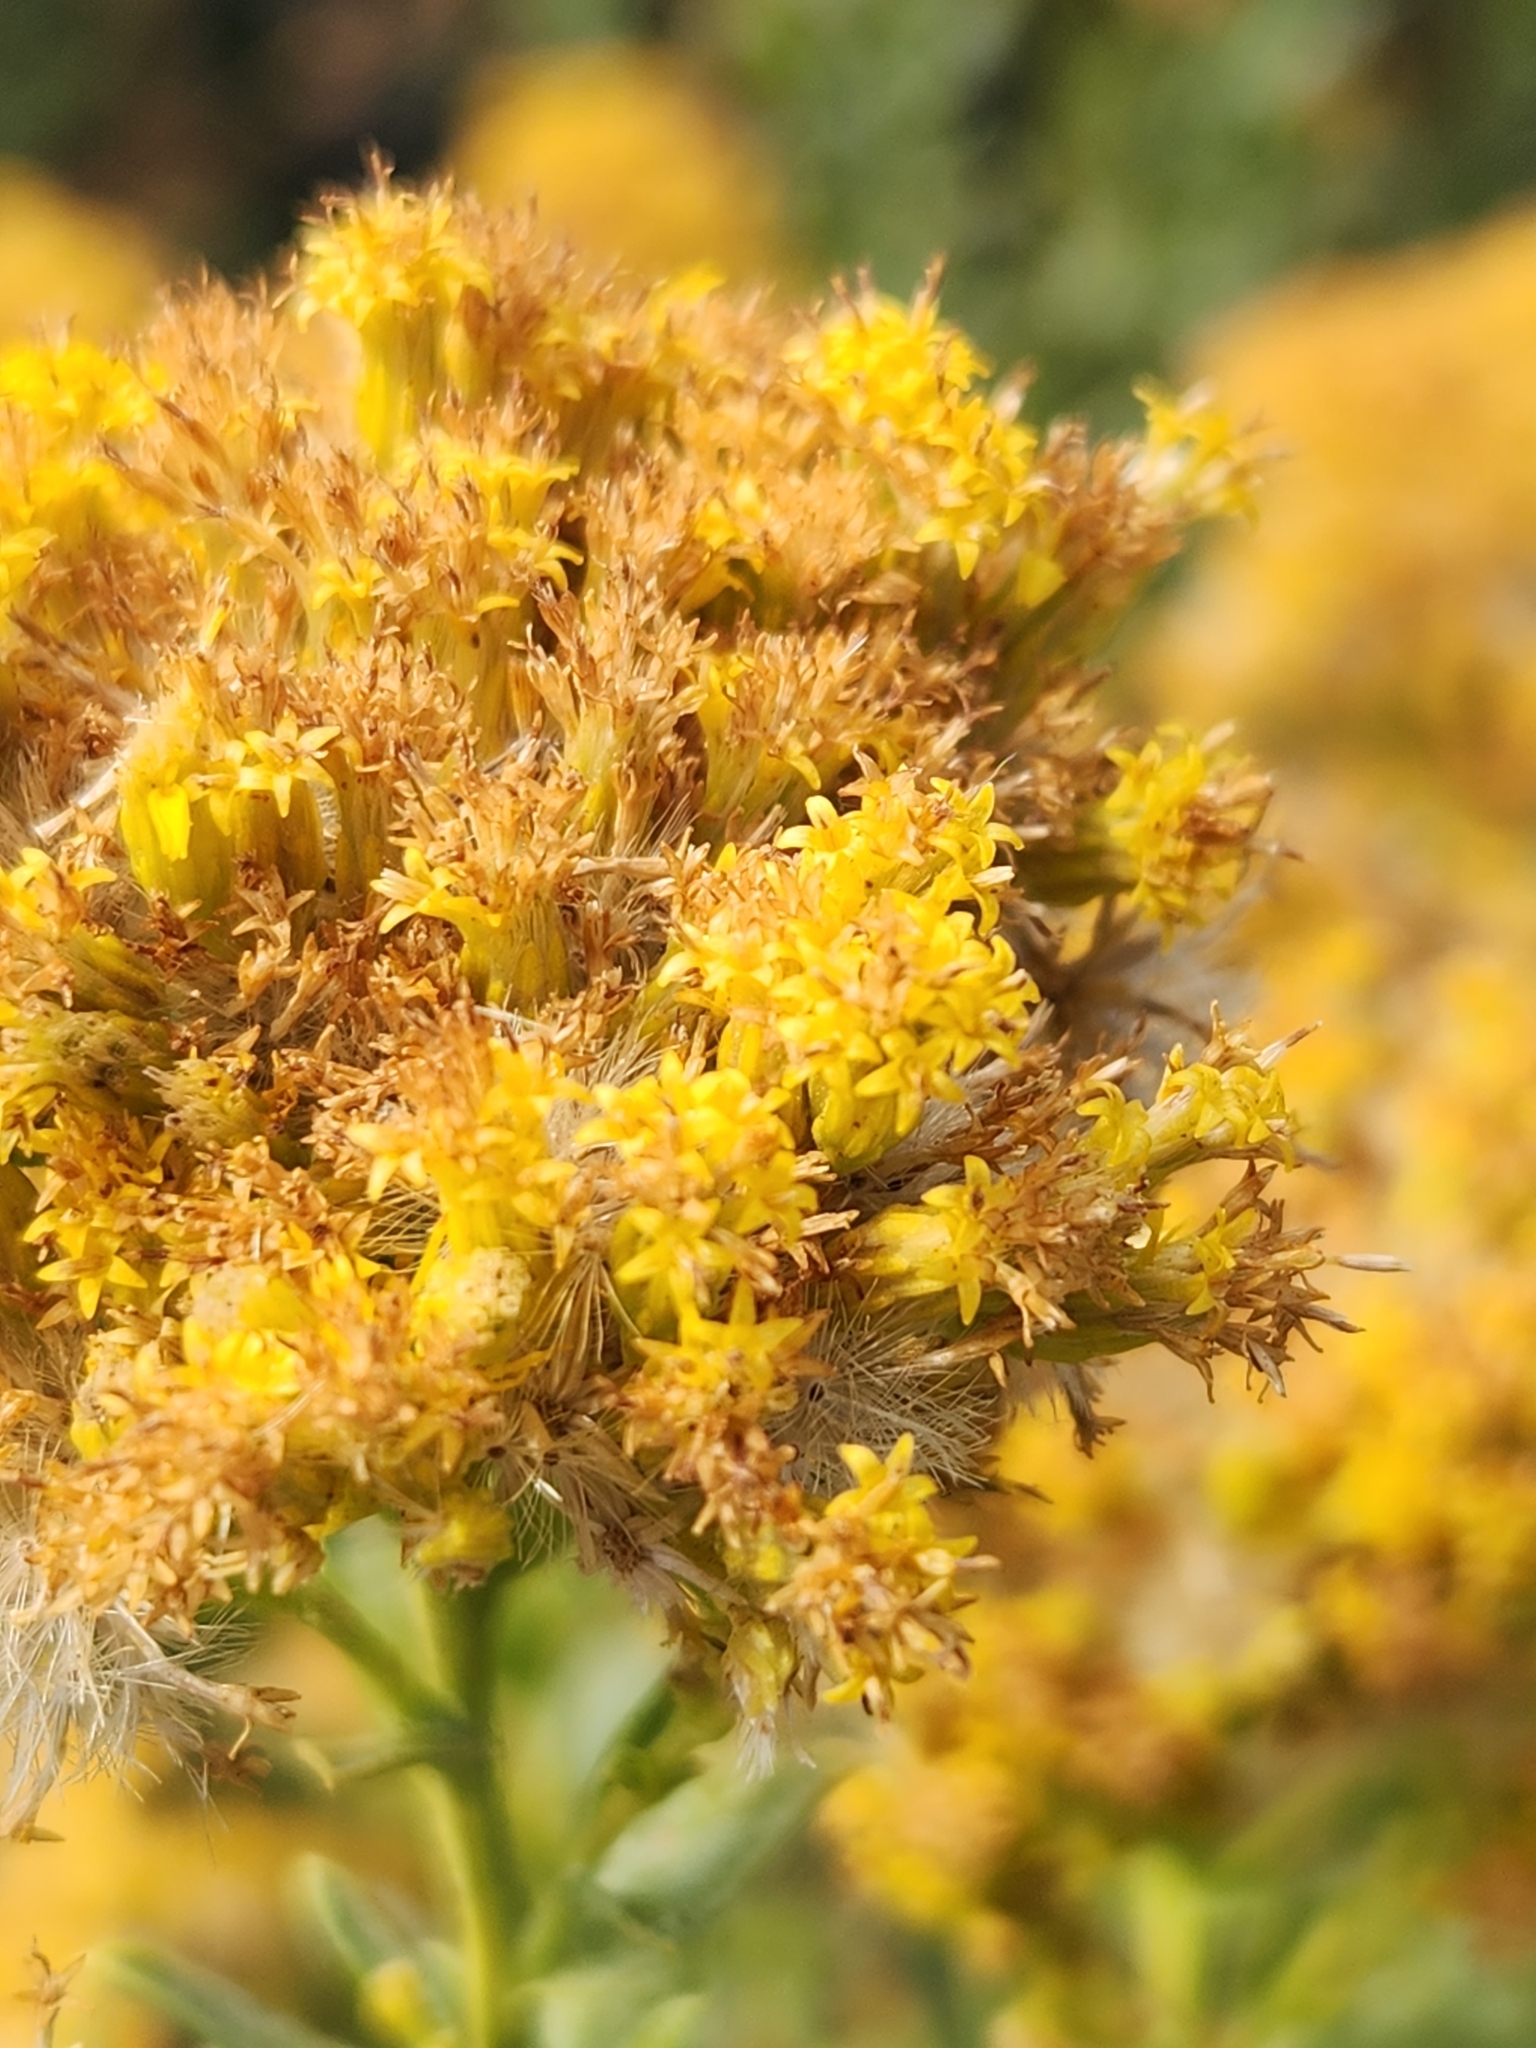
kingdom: Plantae
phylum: Tracheophyta
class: Magnoliopsida
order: Asterales
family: Asteraceae
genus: Ericameria
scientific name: Ericameria parishii
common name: Parish's goldenbush
